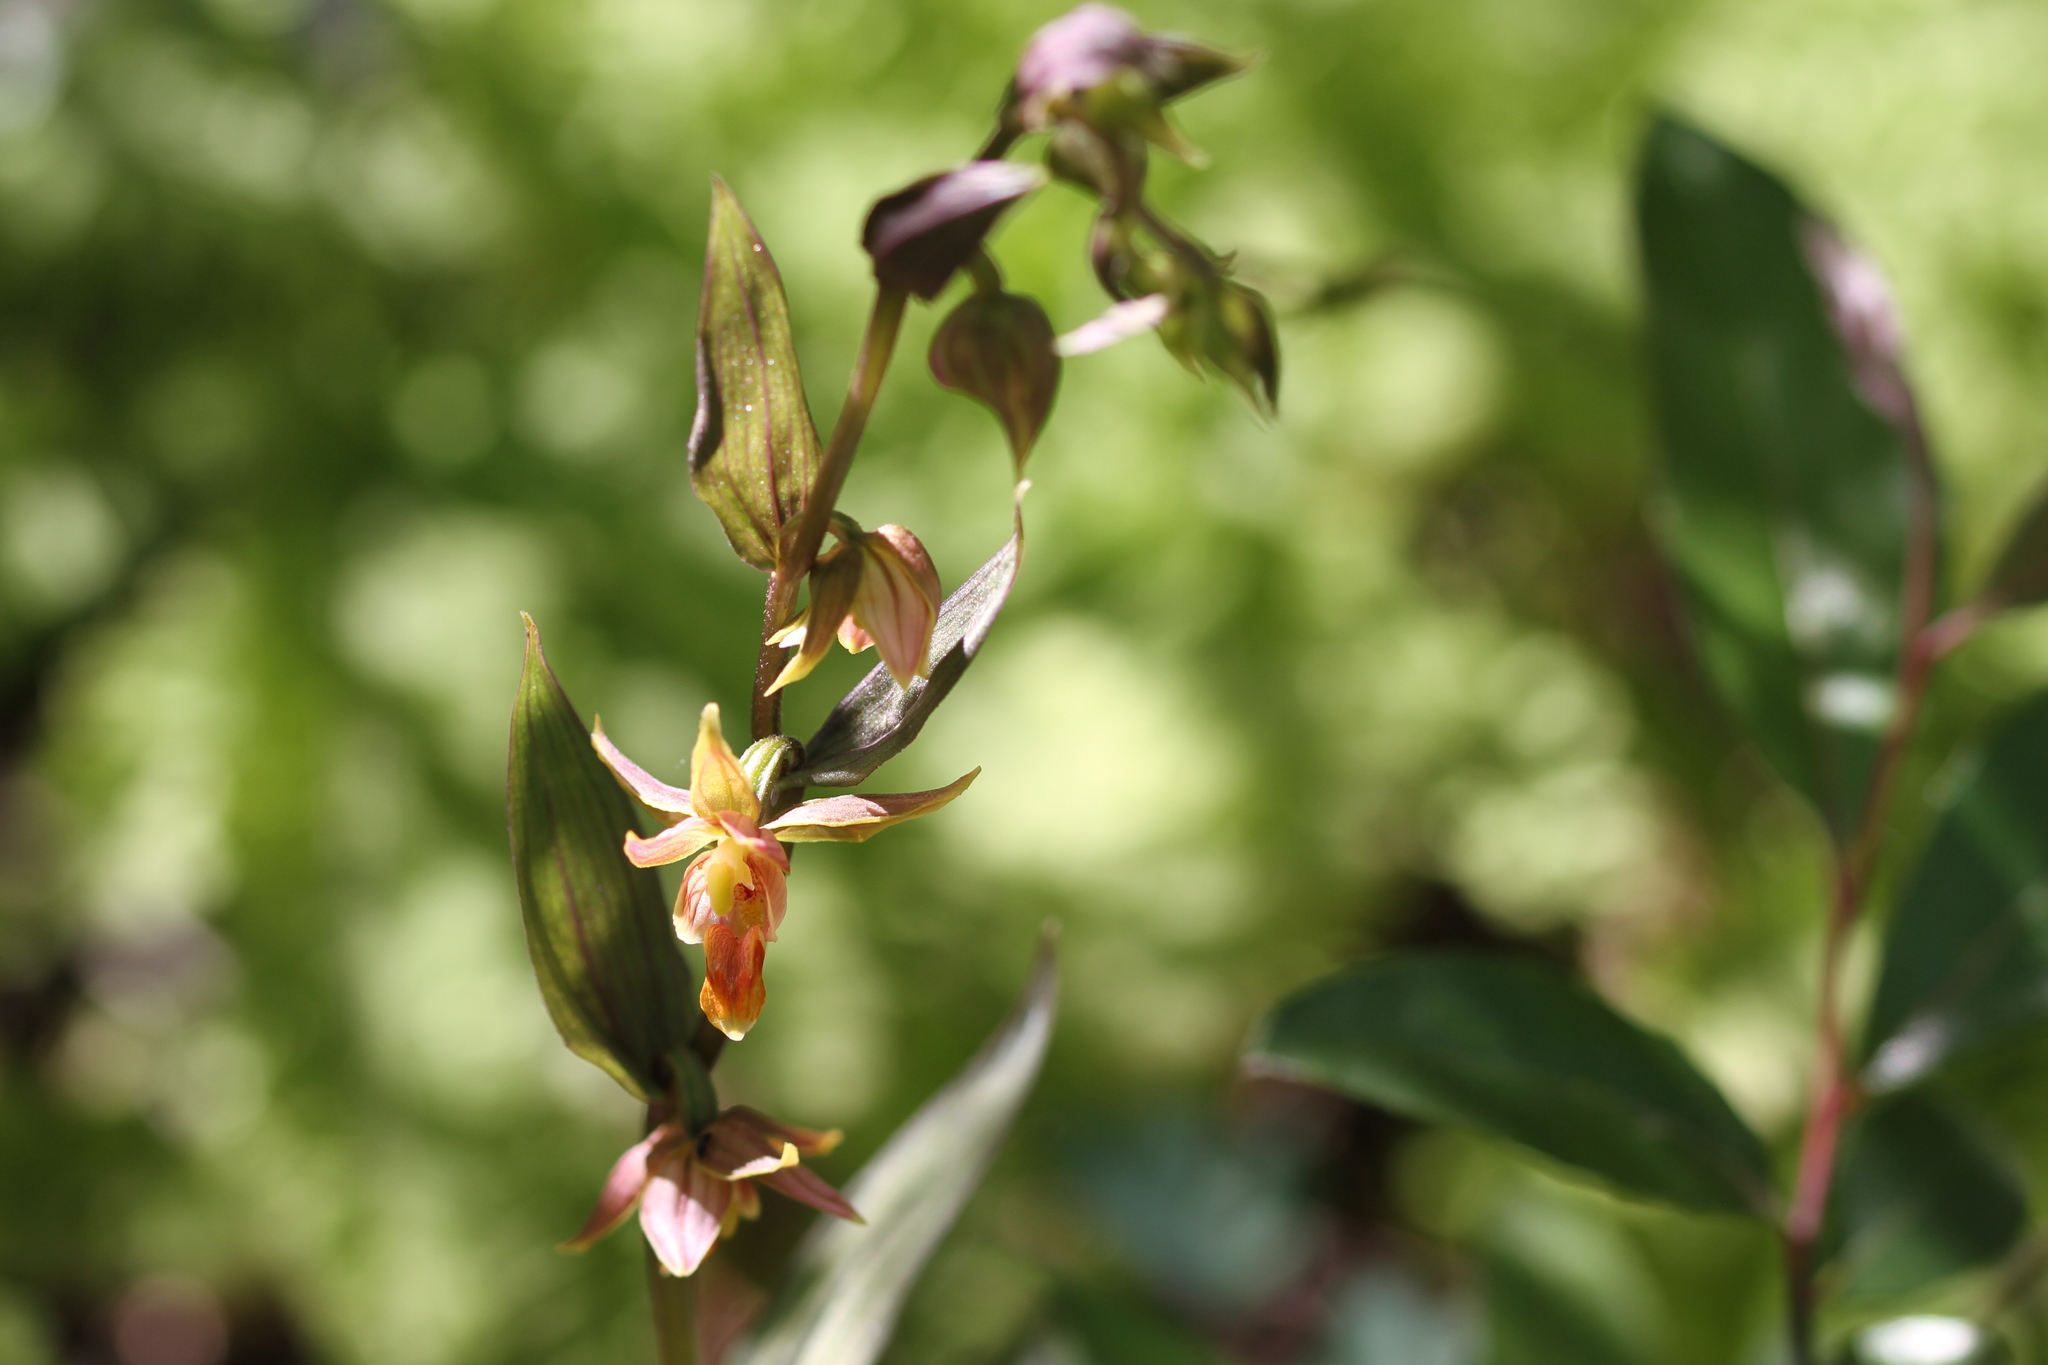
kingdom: Plantae
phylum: Tracheophyta
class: Liliopsida
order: Asparagales
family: Orchidaceae
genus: Epipactis
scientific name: Epipactis gigantea
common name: Chatterbox
